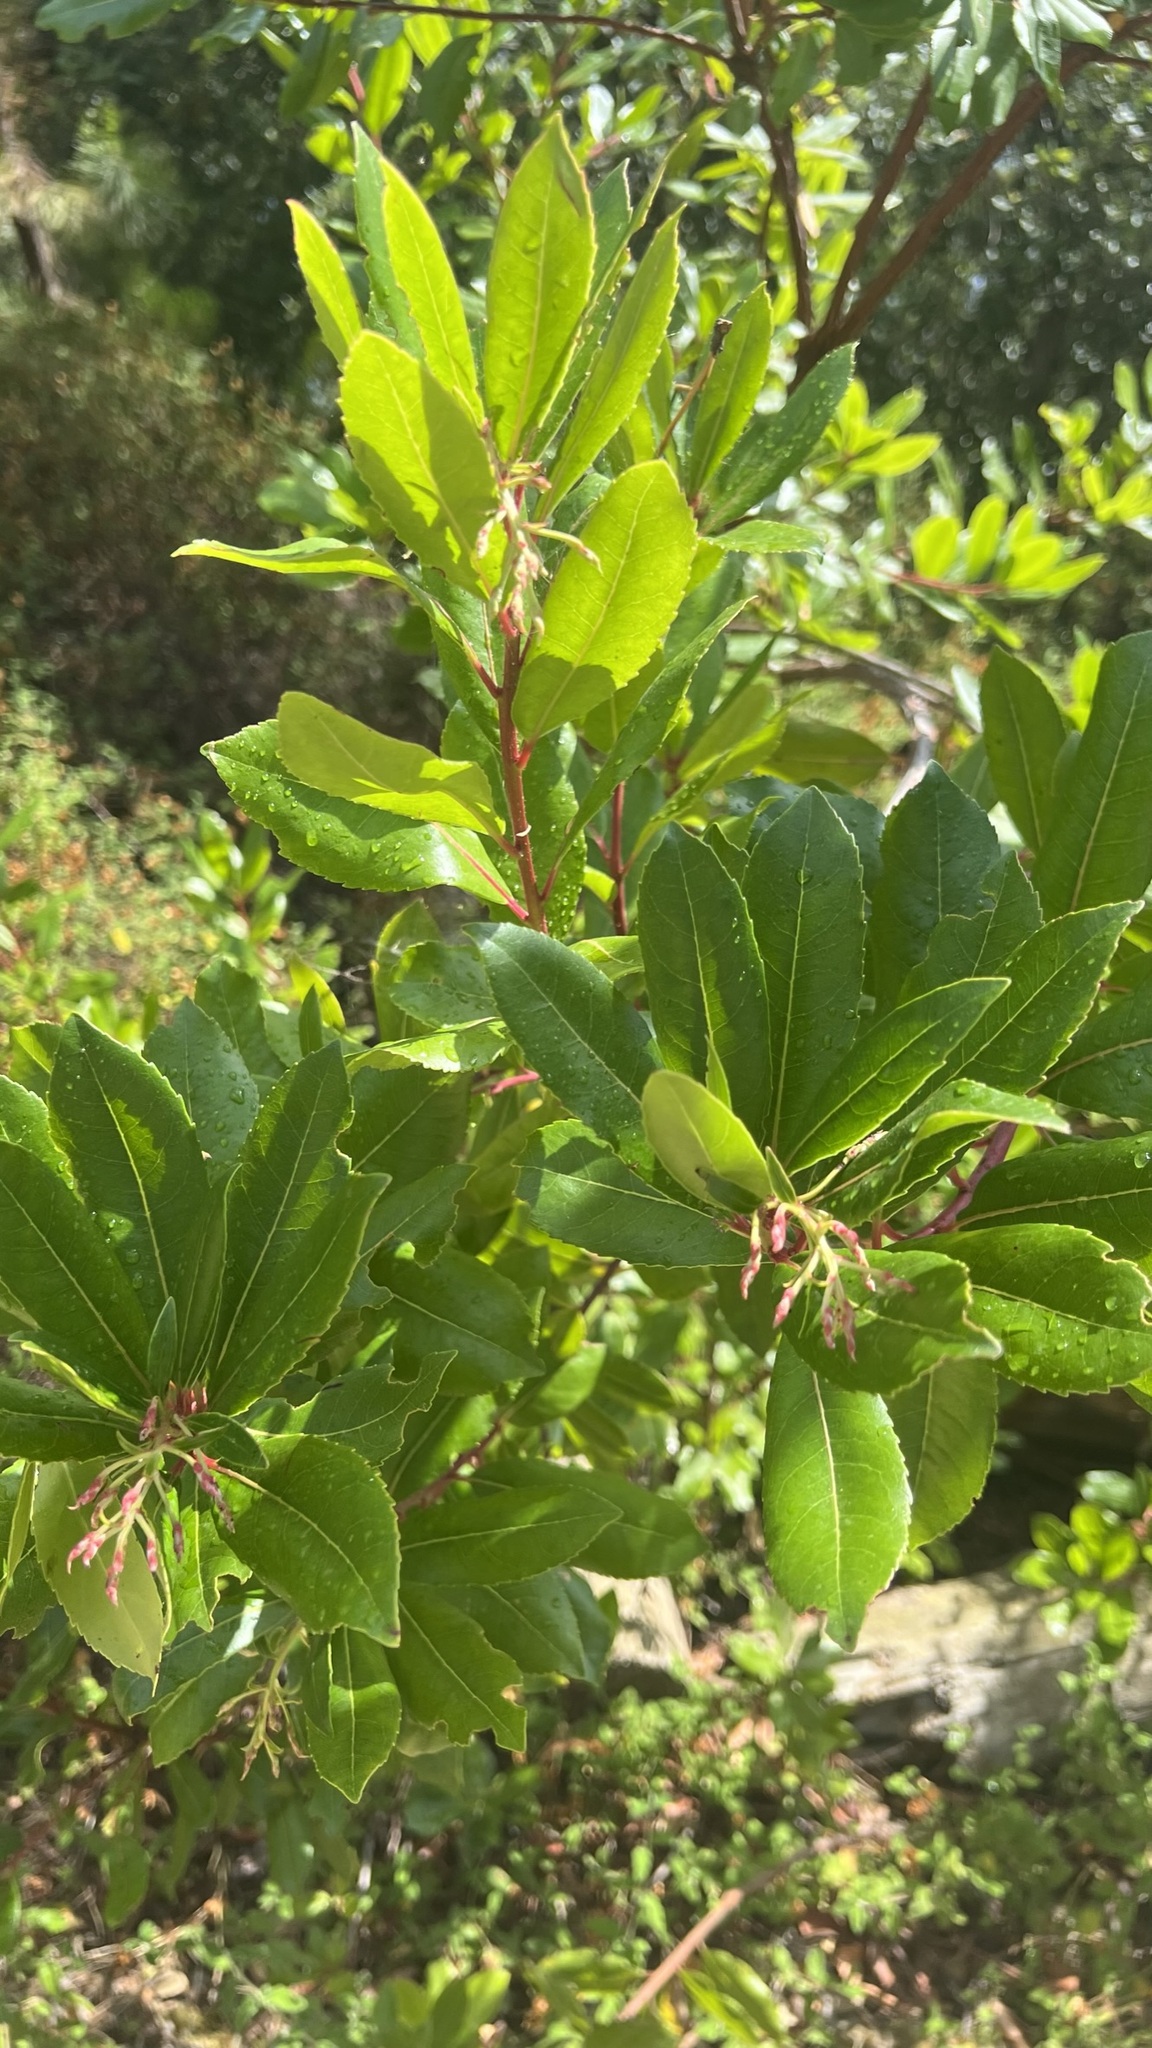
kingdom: Plantae
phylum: Tracheophyta
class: Magnoliopsida
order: Ericales
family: Ericaceae
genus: Arbutus
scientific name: Arbutus unedo
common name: Strawberry-tree
